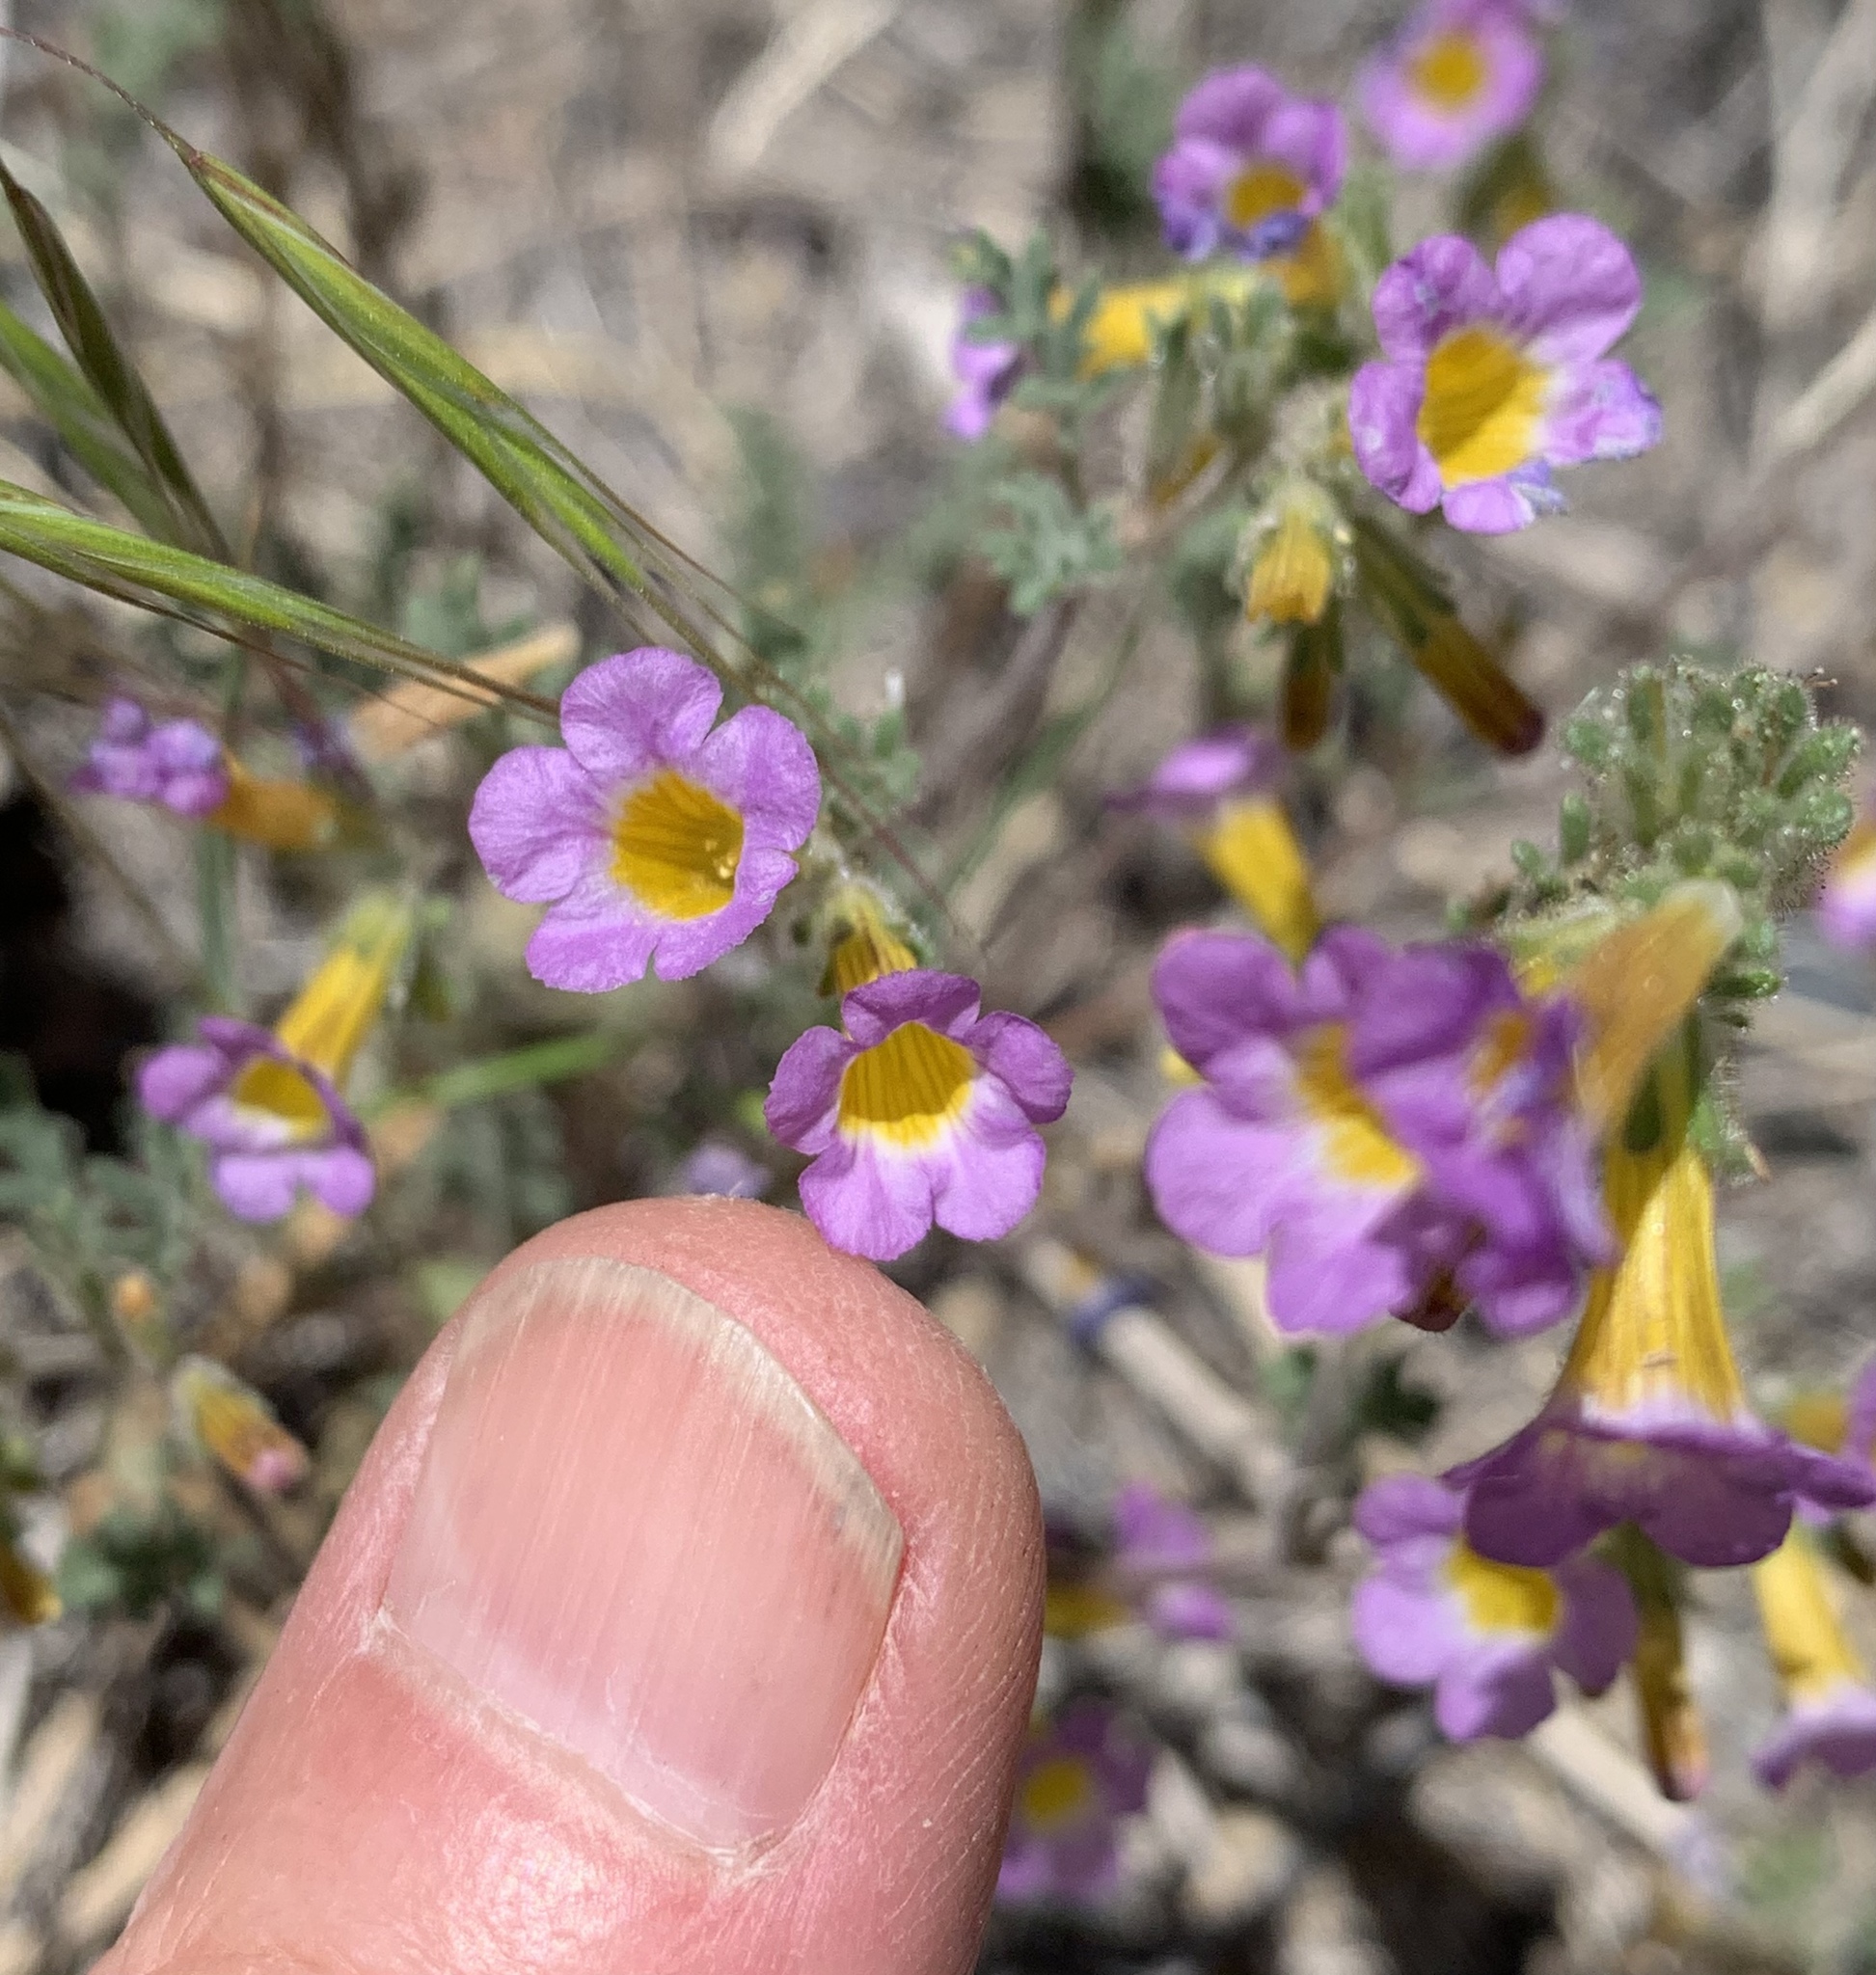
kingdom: Plantae
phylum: Tracheophyta
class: Magnoliopsida
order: Boraginales
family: Hydrophyllaceae
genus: Phacelia
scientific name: Phacelia bicolor
